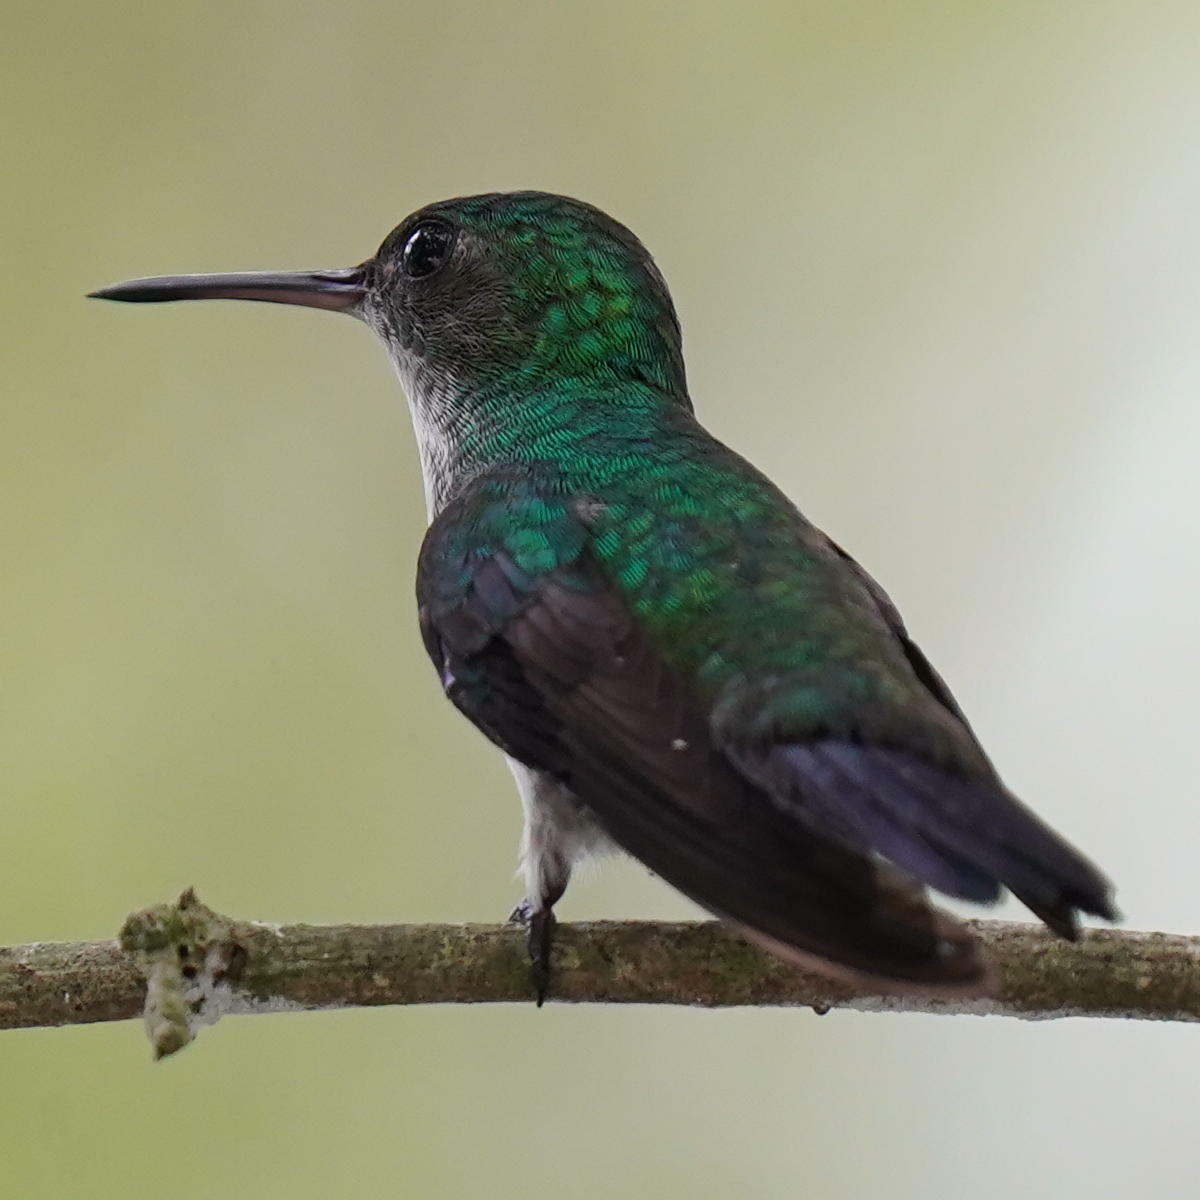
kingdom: Animalia
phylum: Chordata
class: Aves
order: Apodiformes
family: Trochilidae
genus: Chlorestes
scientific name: Chlorestes julie
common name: Violet-bellied hummingbird
